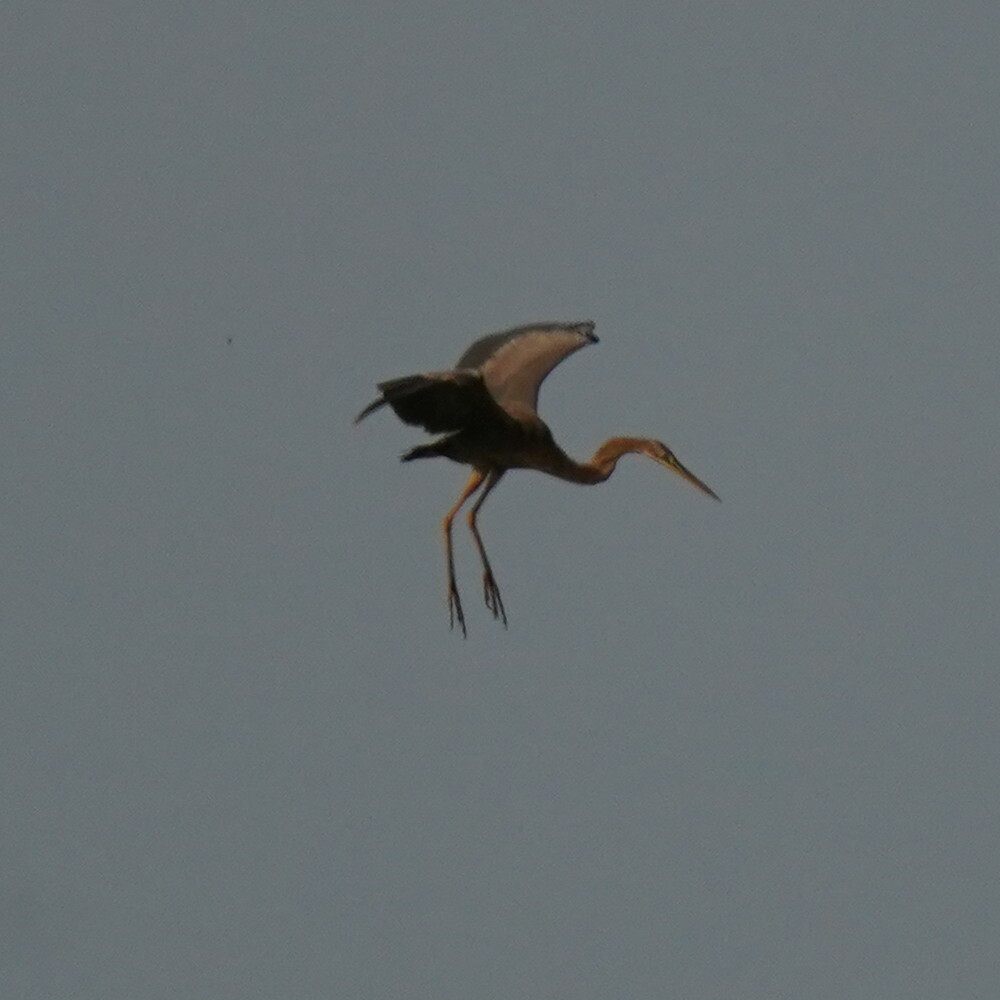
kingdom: Animalia
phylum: Chordata
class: Aves
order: Pelecaniformes
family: Ardeidae
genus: Ardea
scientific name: Ardea purpurea
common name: Purple heron
